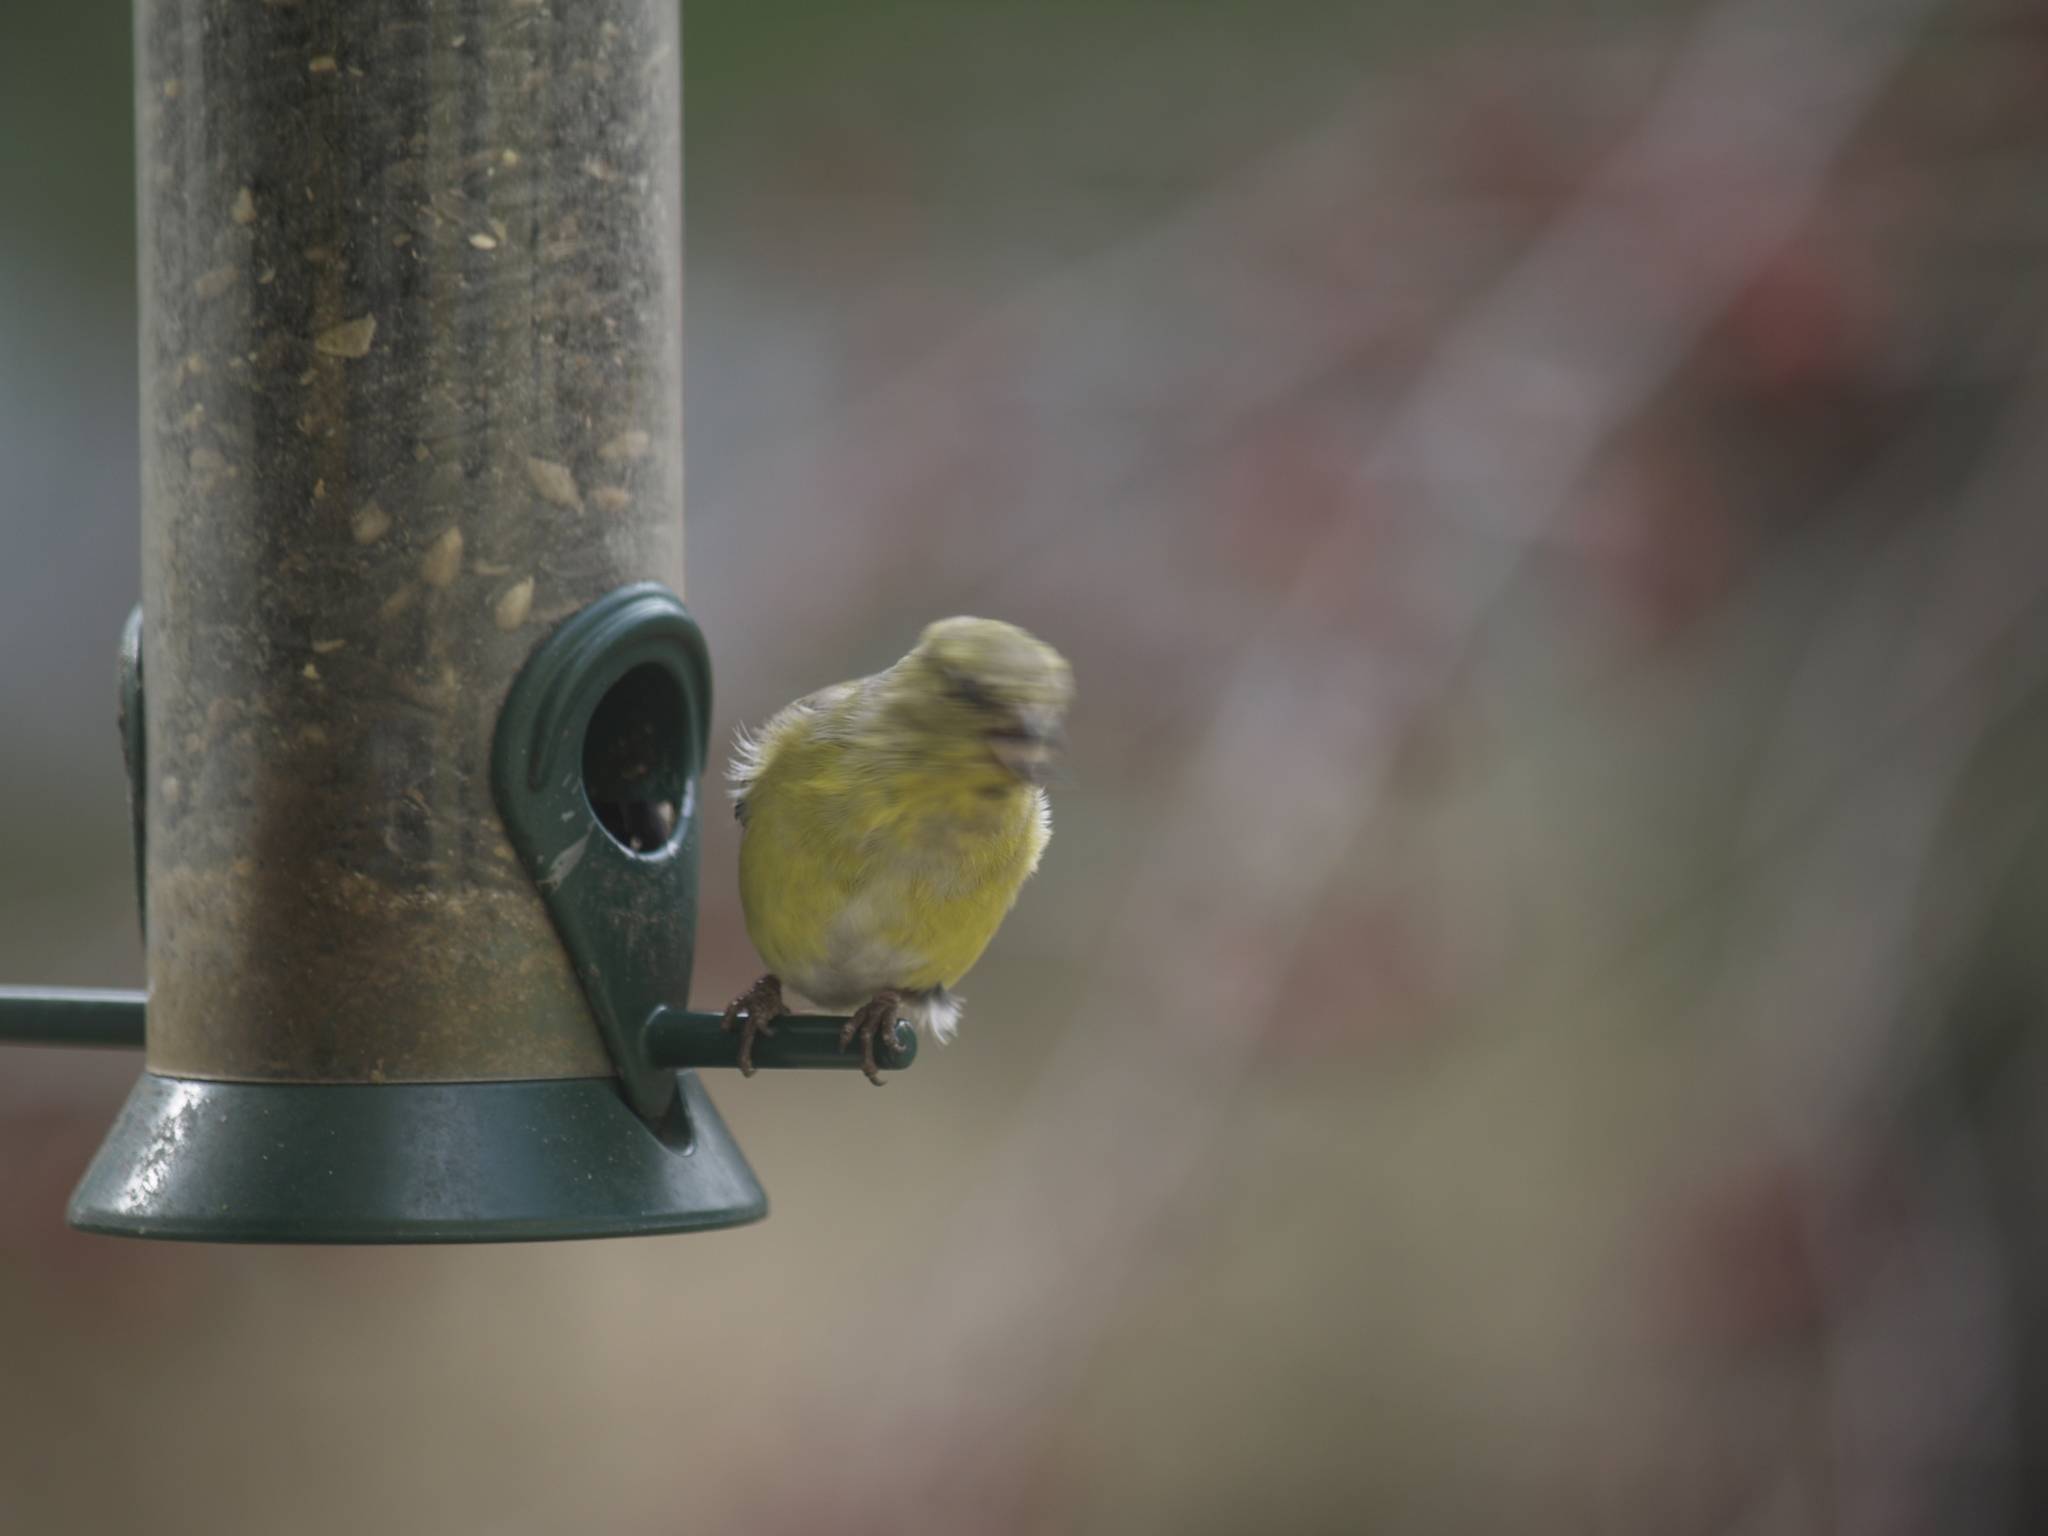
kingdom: Animalia
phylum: Chordata
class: Aves
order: Passeriformes
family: Fringillidae
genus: Spinus
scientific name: Spinus tristis
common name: American goldfinch
